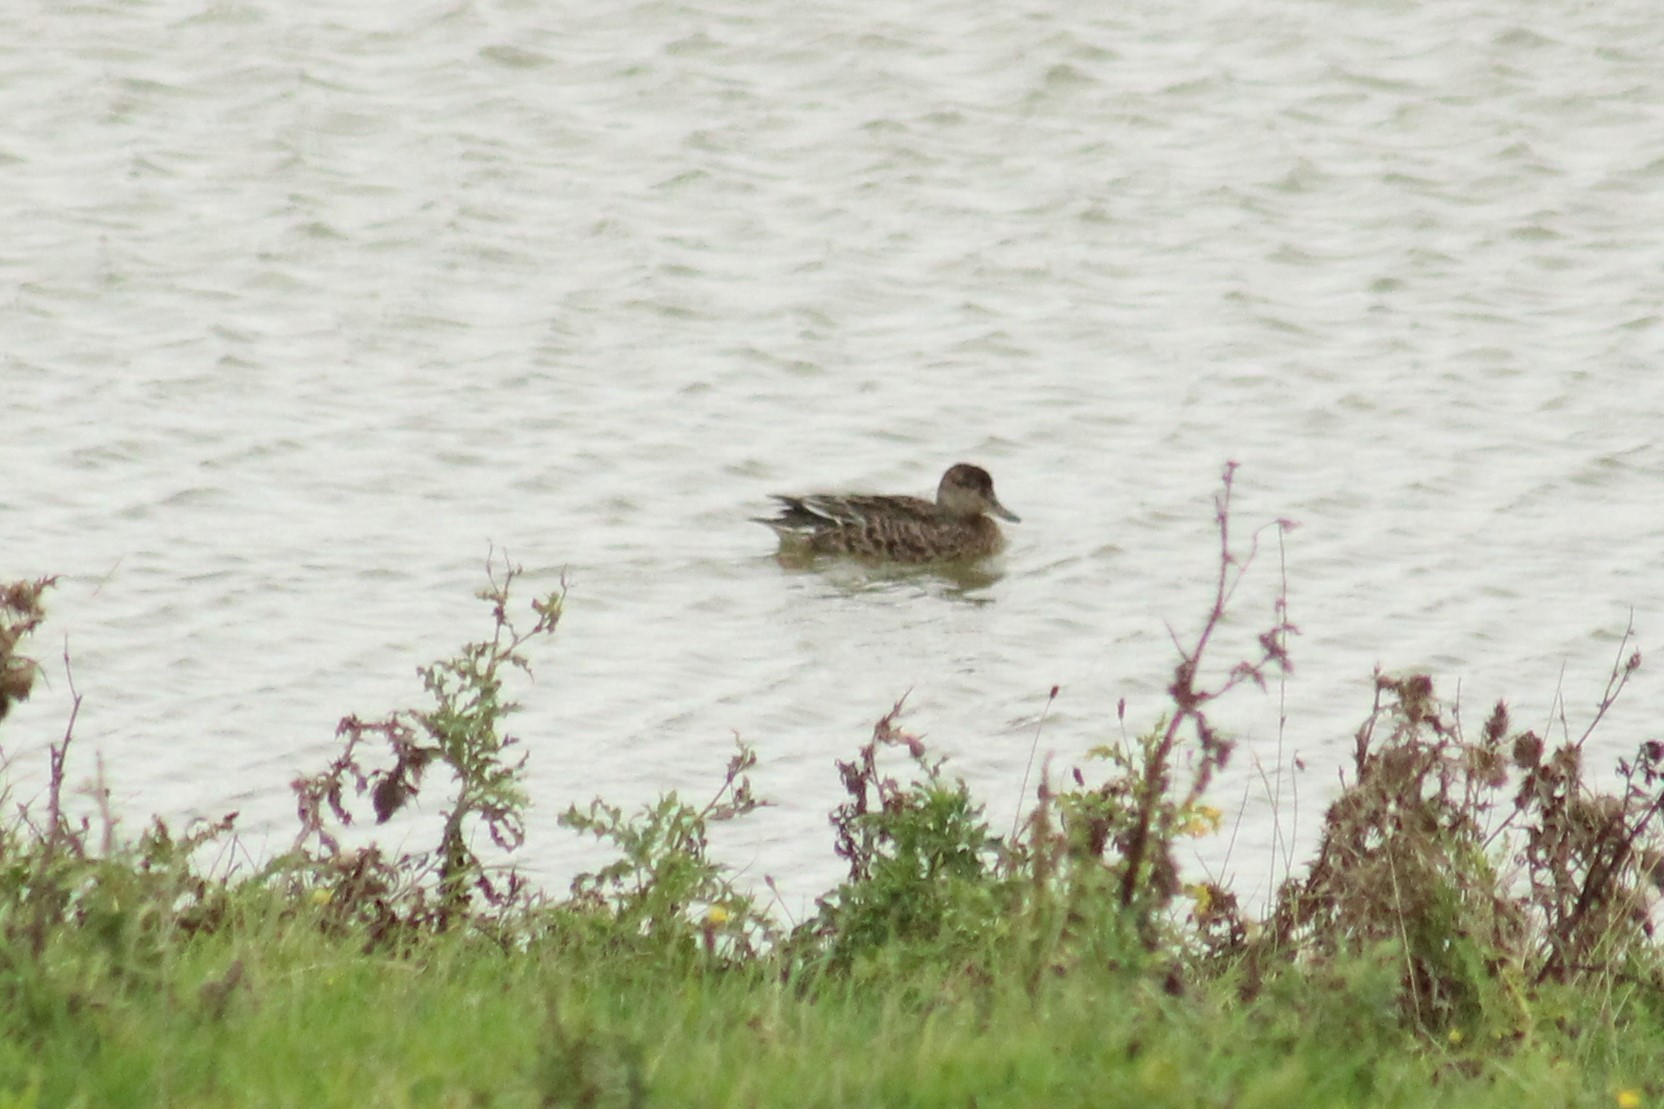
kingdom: Animalia
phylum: Chordata
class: Aves
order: Anseriformes
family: Anatidae
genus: Anas
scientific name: Anas crecca
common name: Eurasian teal
